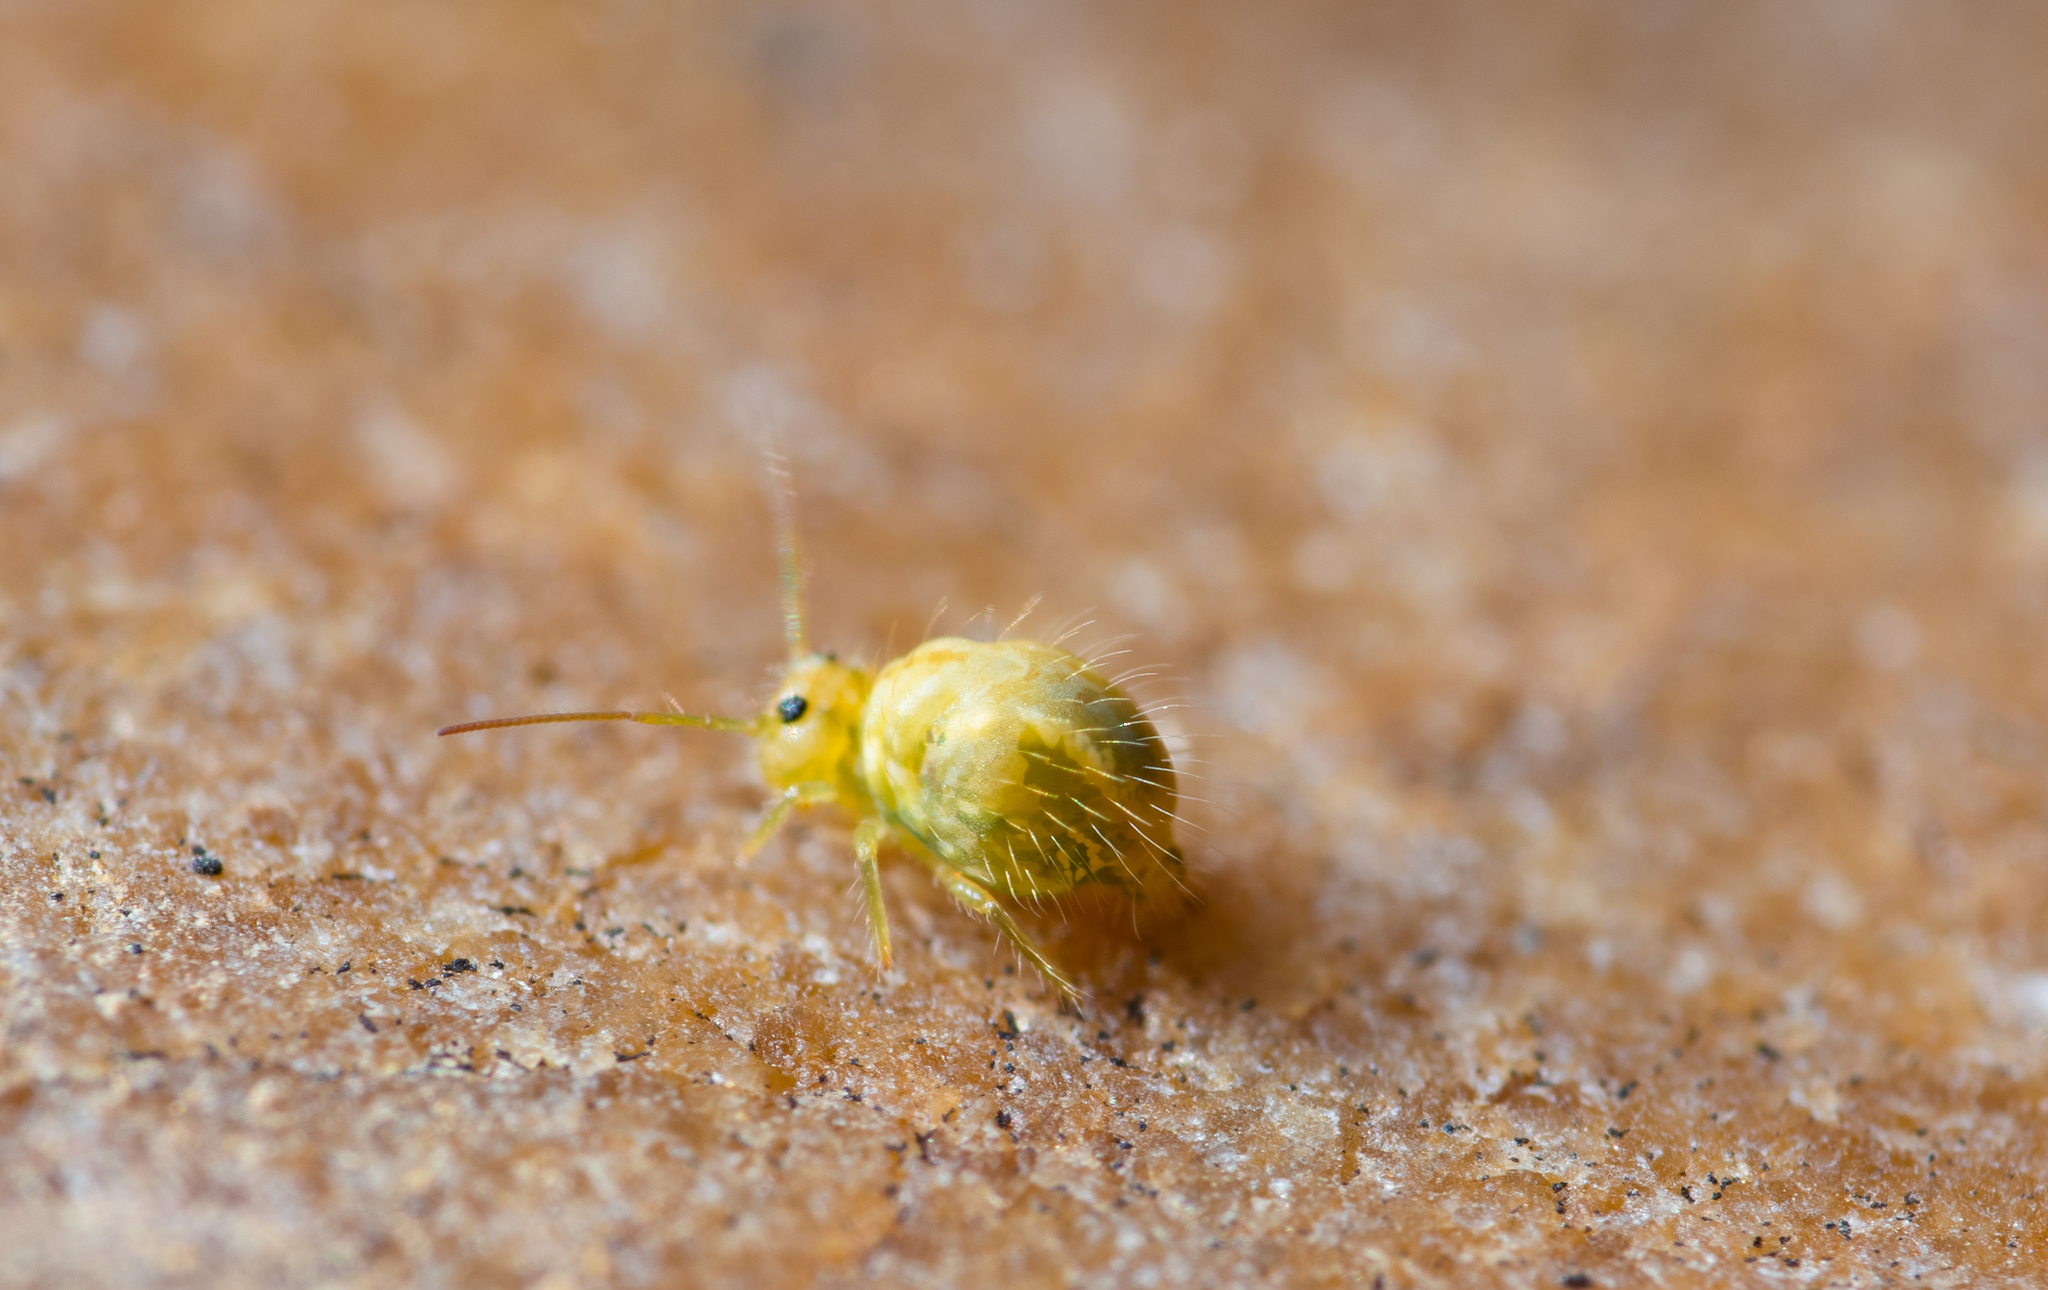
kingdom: Animalia
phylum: Arthropoda
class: Collembola
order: Symphypleona
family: Sminthuridae
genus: Sminthurus
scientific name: Sminthurus viridis
